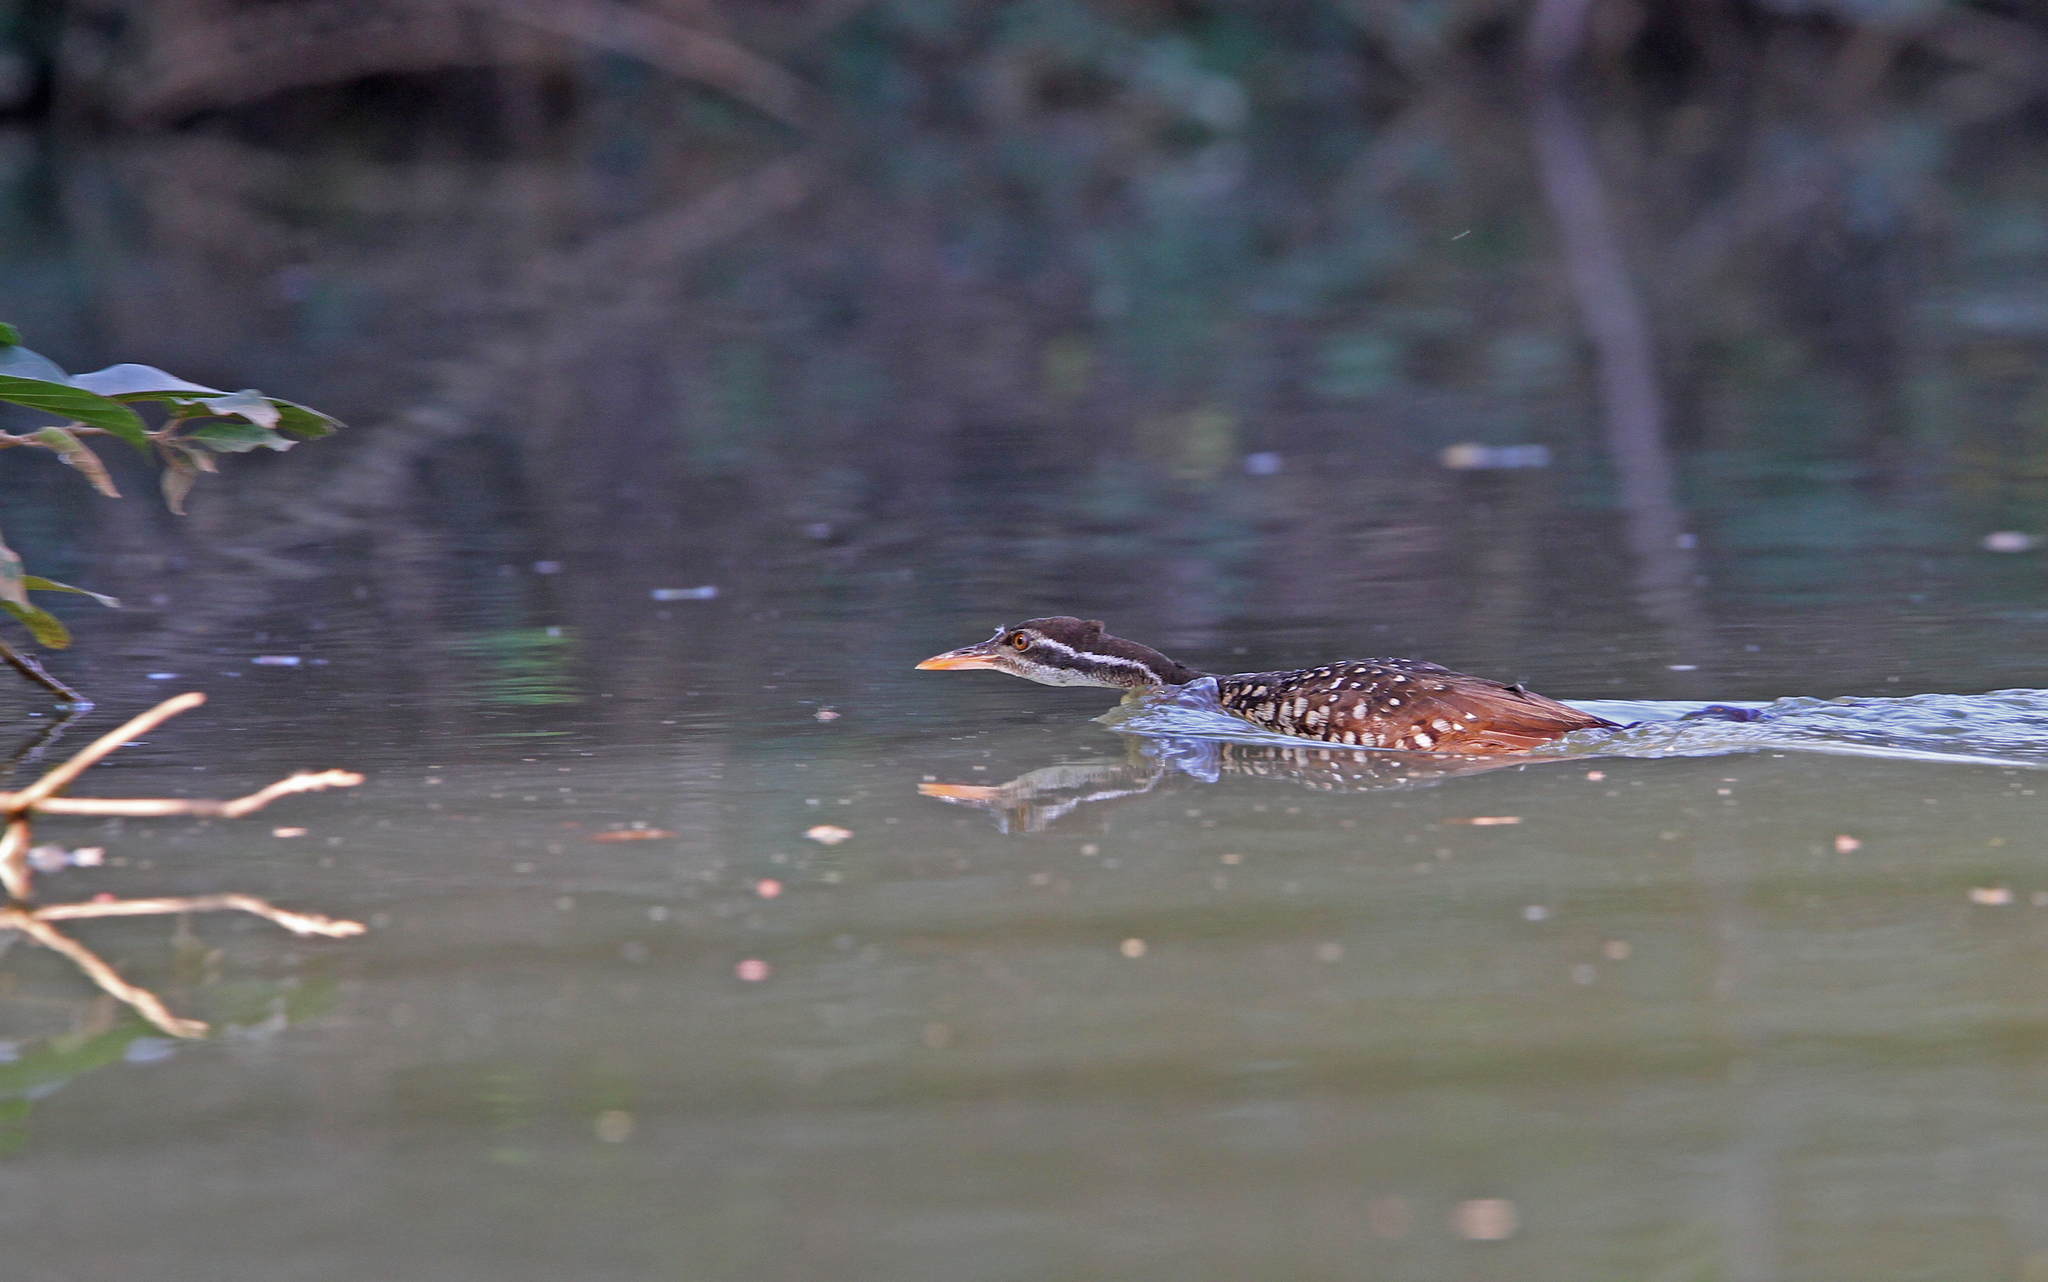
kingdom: Animalia
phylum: Chordata
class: Aves
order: Gruiformes
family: Heliornithidae
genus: Podica
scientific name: Podica senegalensis
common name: African finfoot
